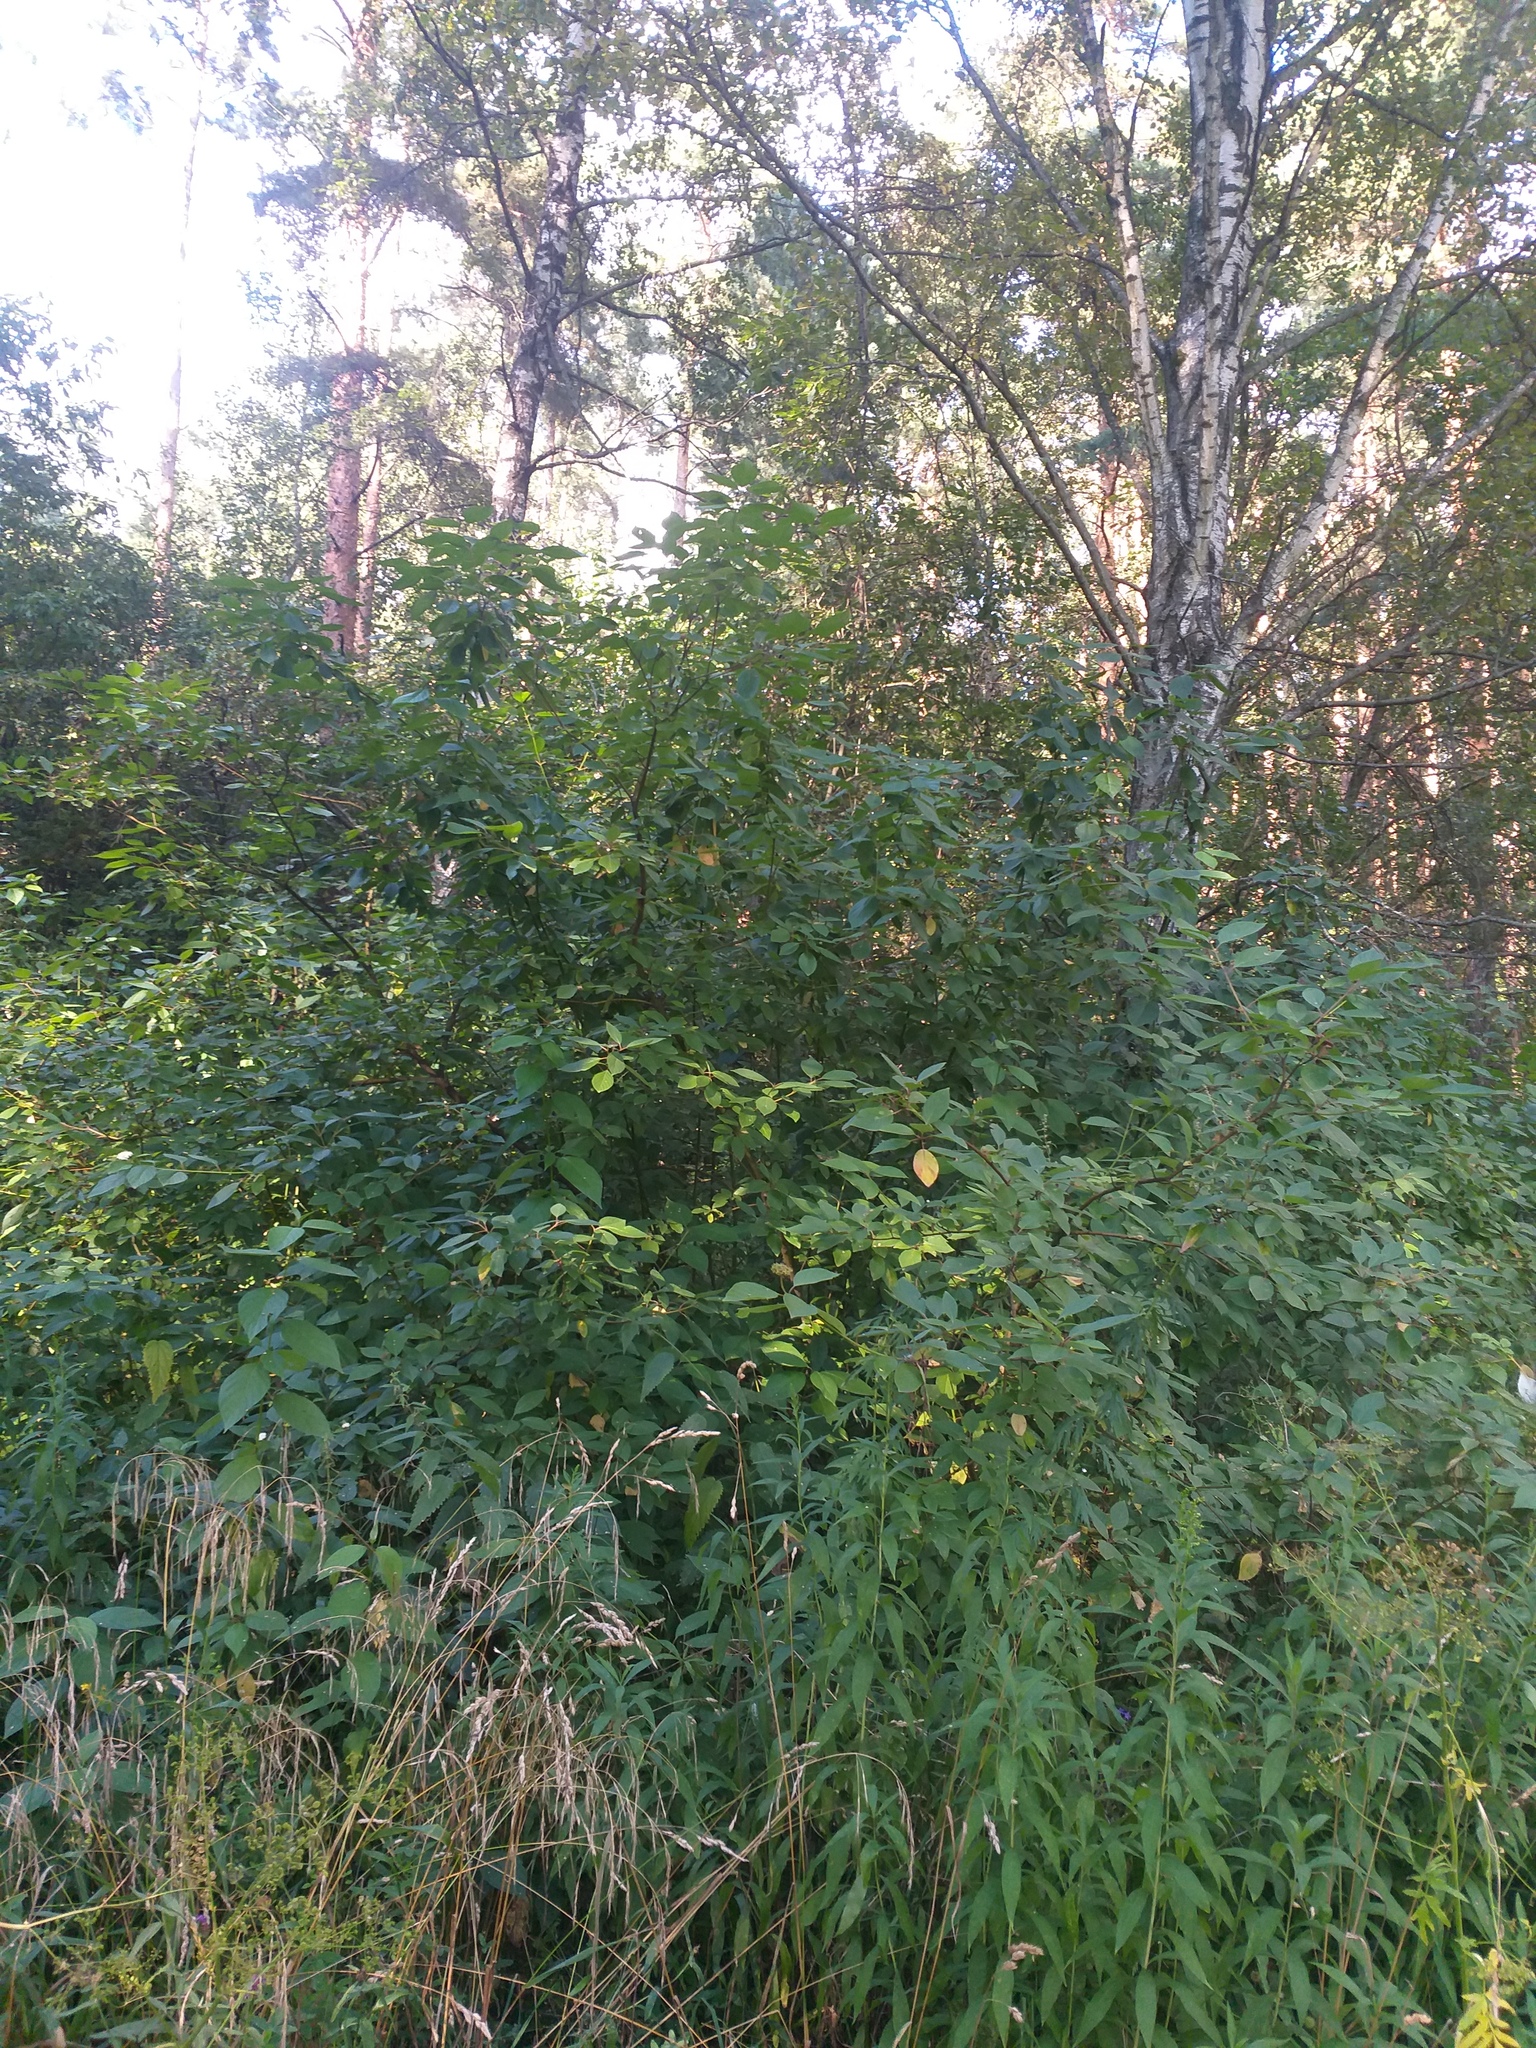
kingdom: Plantae
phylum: Tracheophyta
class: Magnoliopsida
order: Cornales
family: Cornaceae
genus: Cornus
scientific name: Cornus alba
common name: White dogwood
